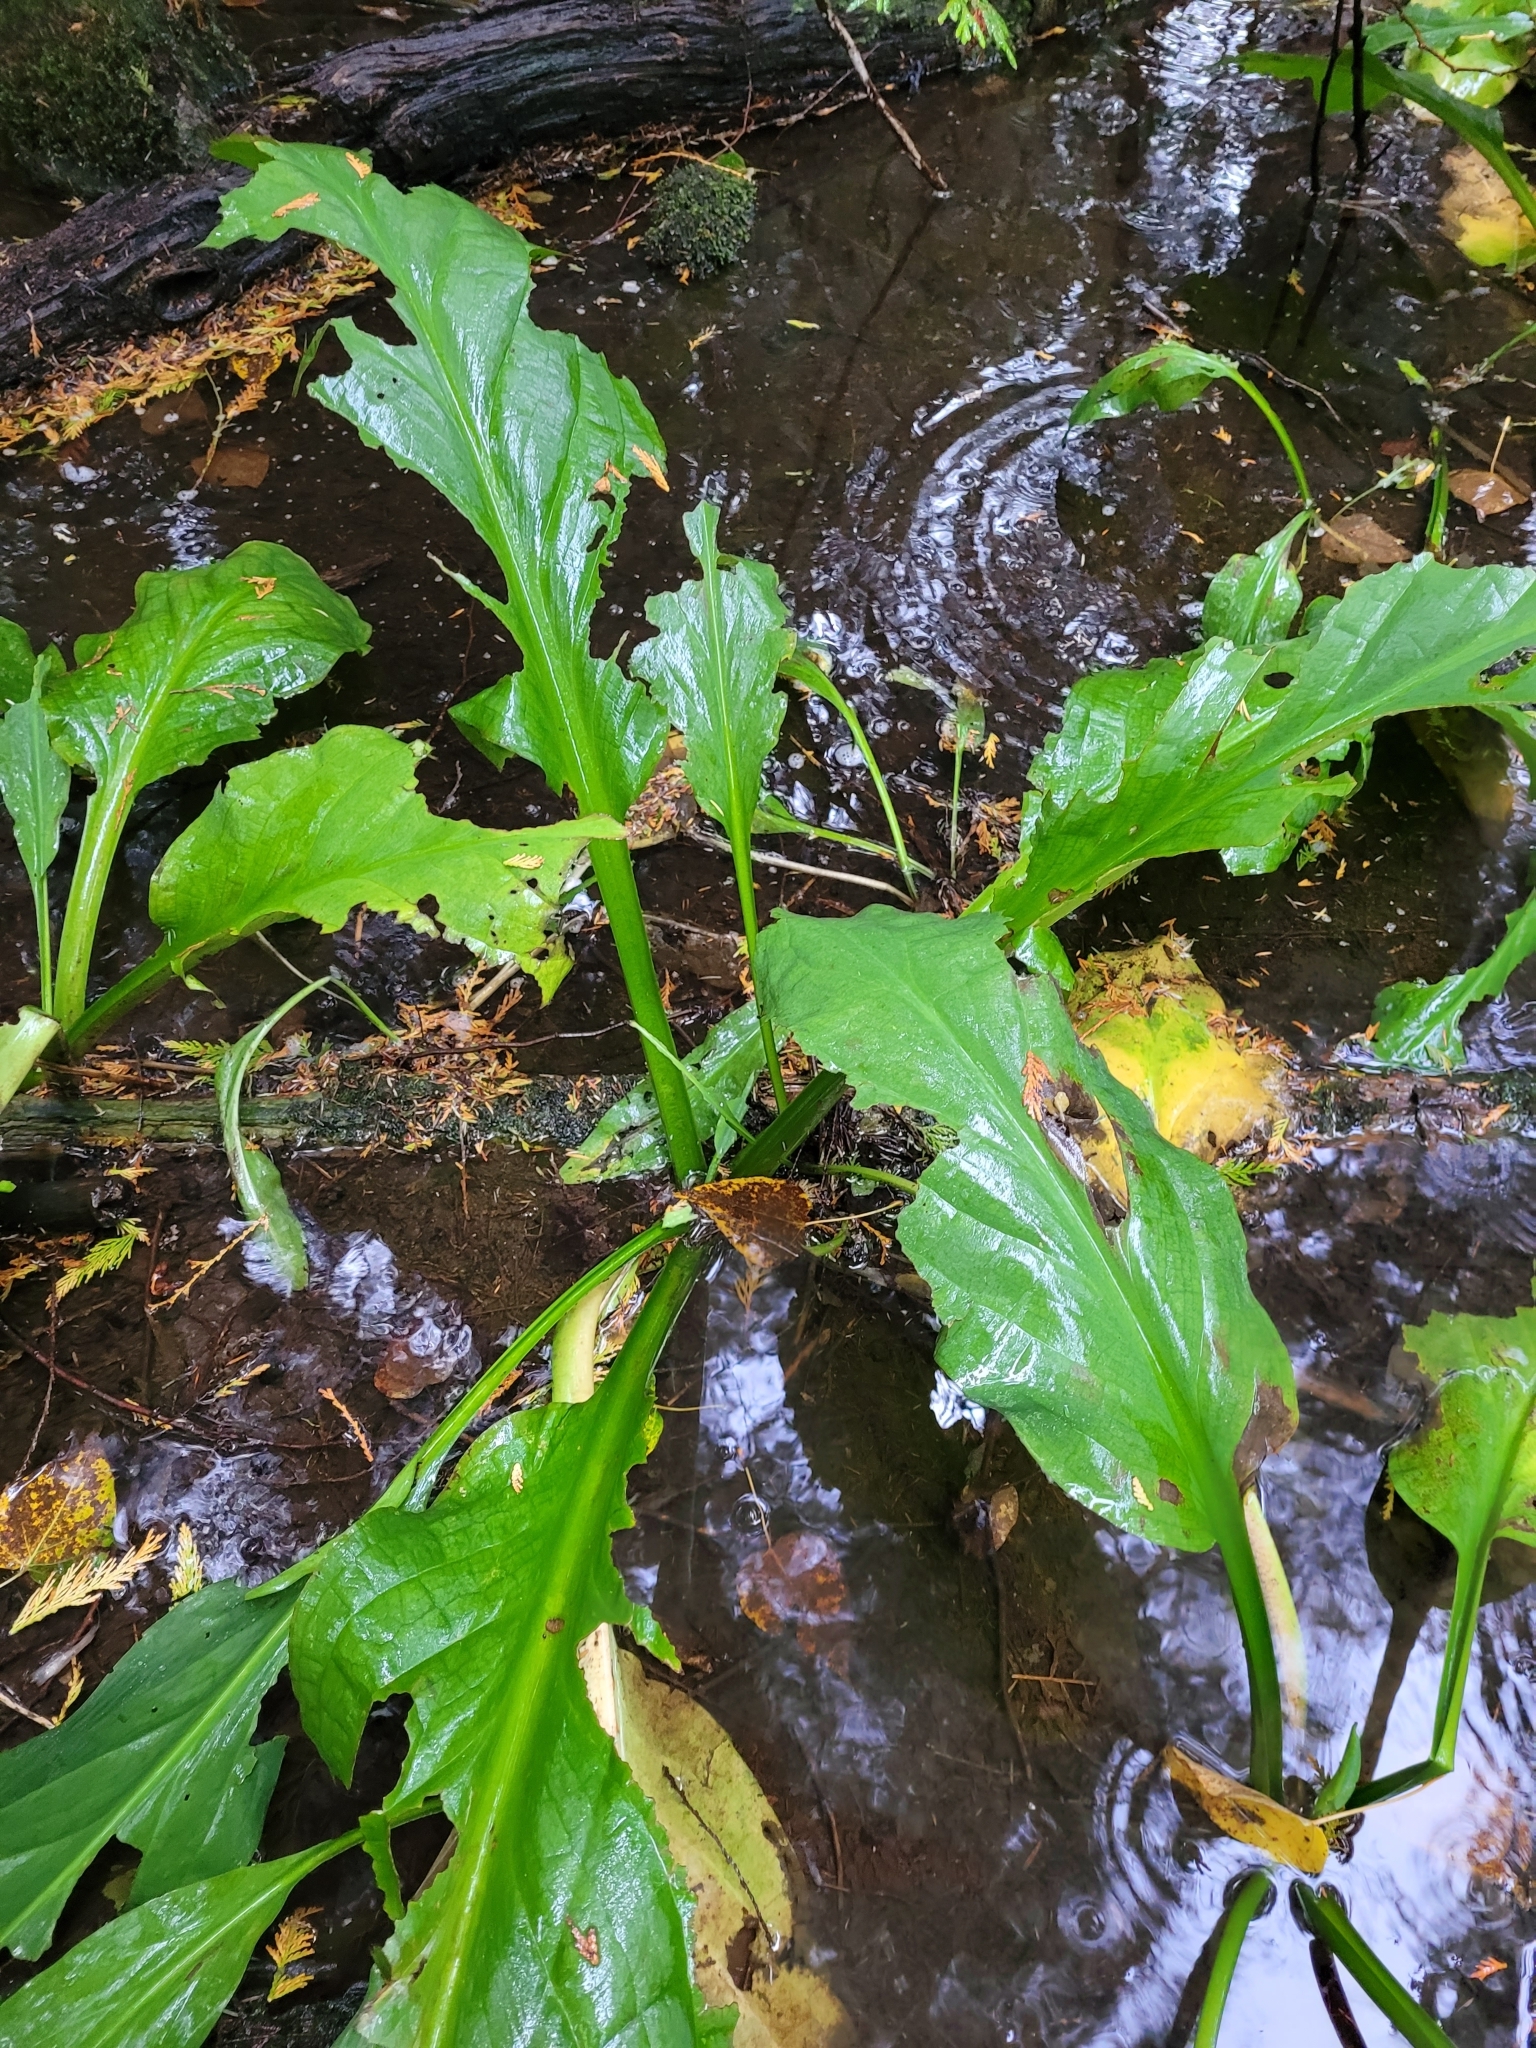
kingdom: Plantae
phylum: Tracheophyta
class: Liliopsida
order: Alismatales
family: Araceae
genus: Lysichiton
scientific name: Lysichiton americanus
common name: American skunk cabbage
